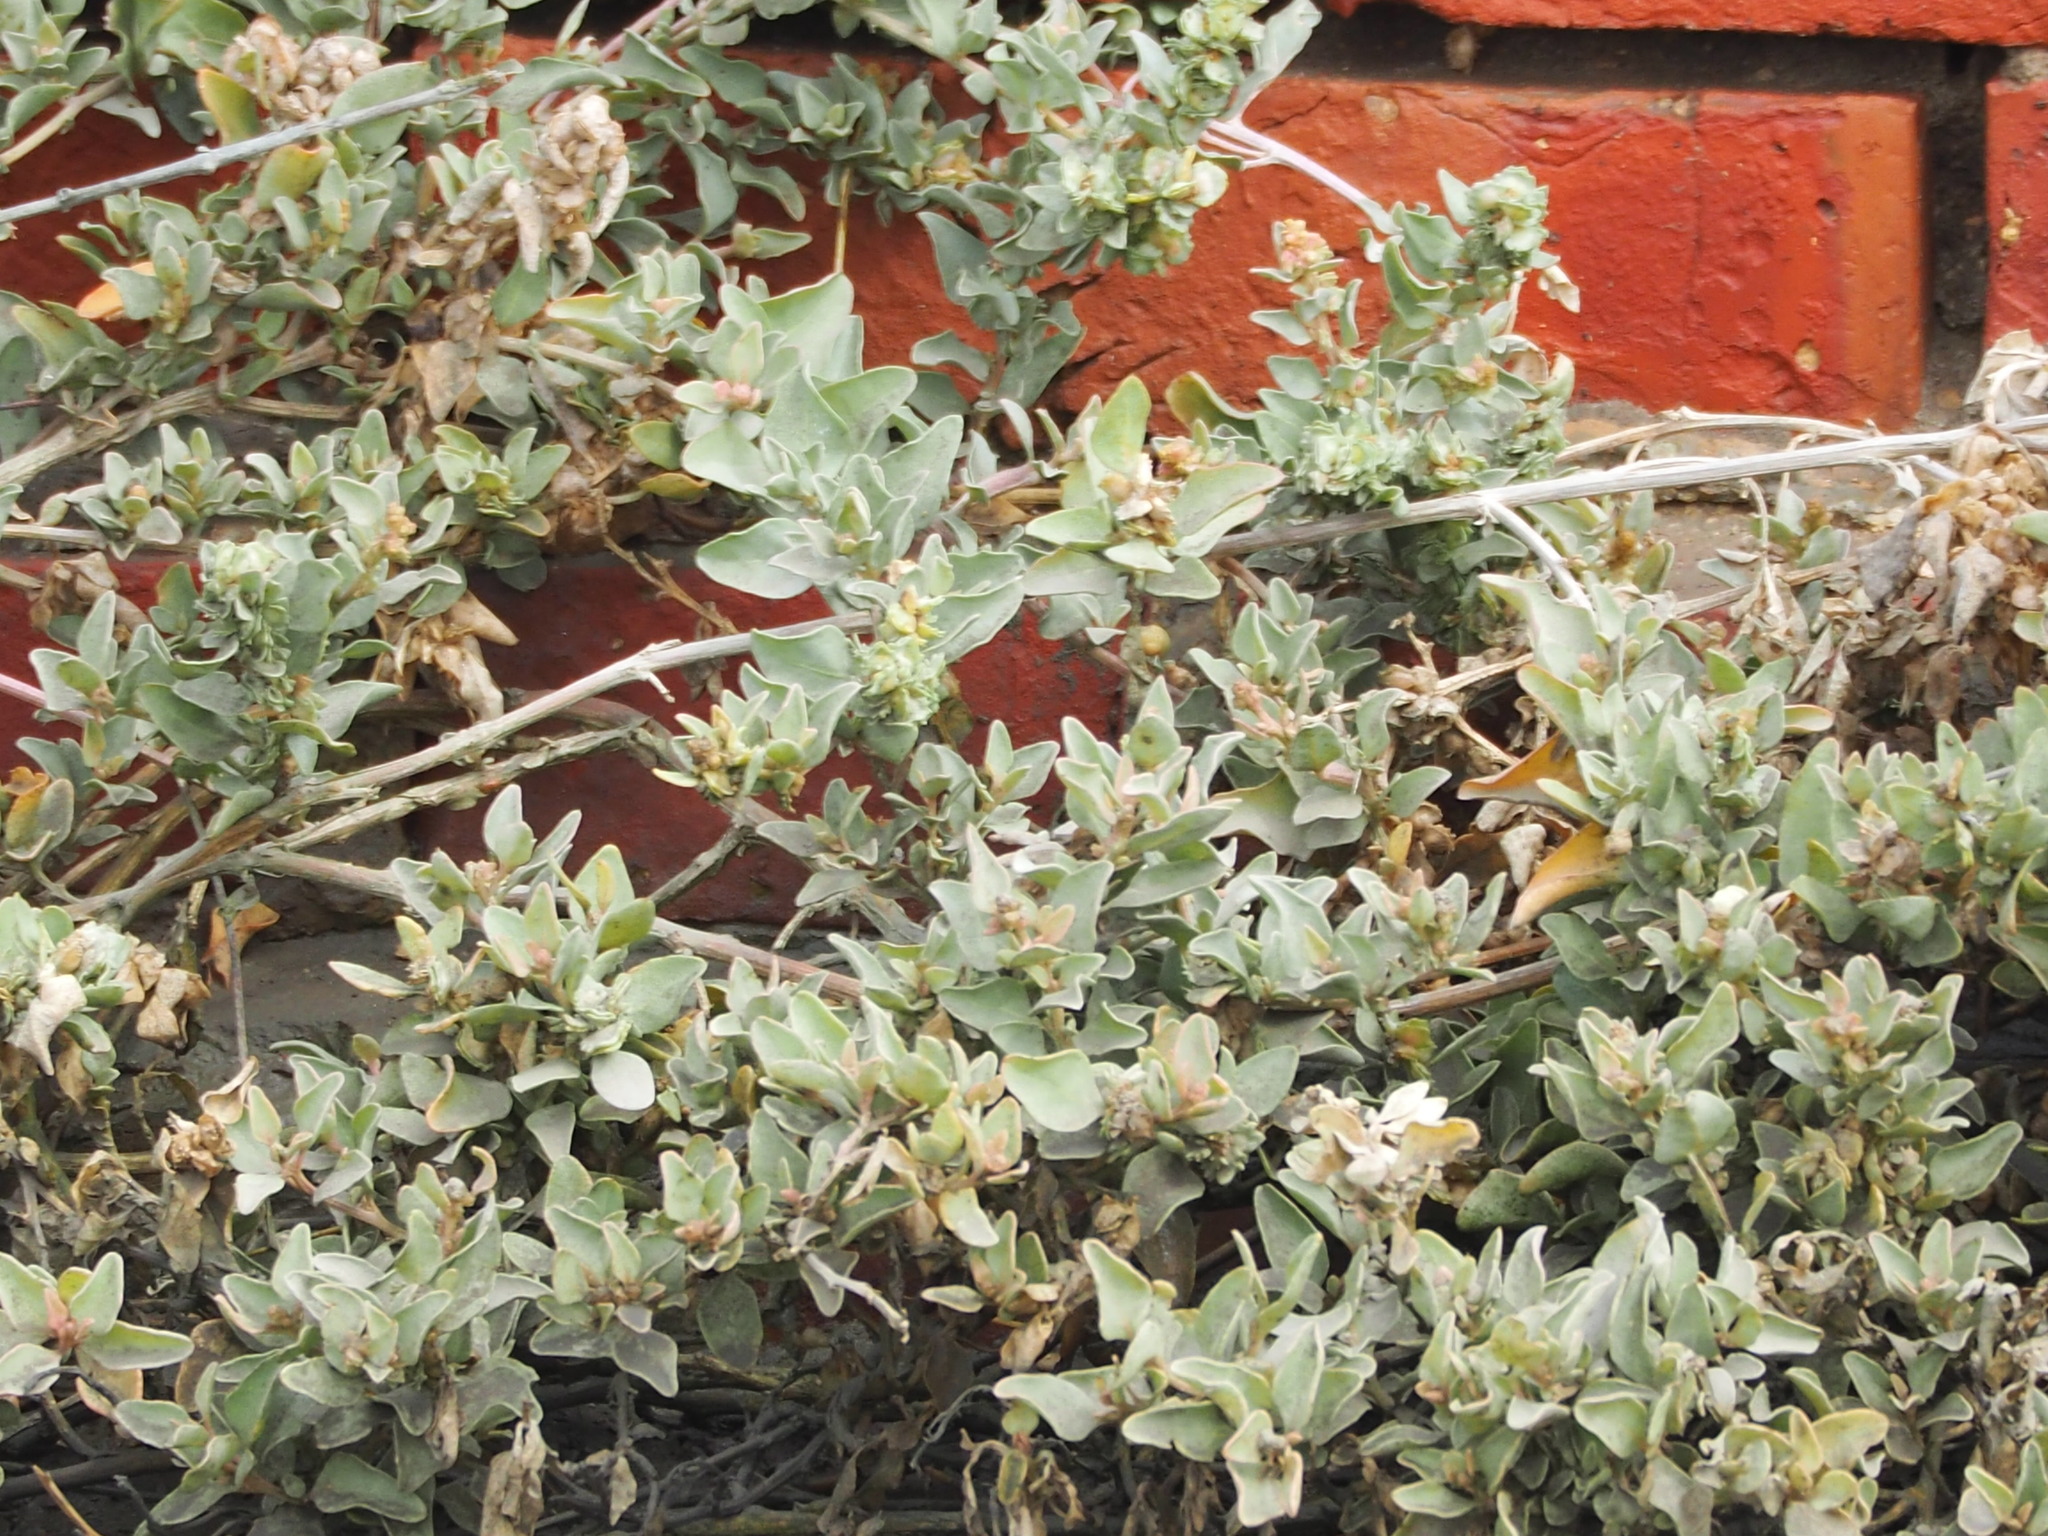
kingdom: Plantae
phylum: Tracheophyta
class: Magnoliopsida
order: Caryophyllales
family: Amaranthaceae
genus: Atriplex
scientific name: Atriplex maximowicziana
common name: Maximowicz's saltbush
